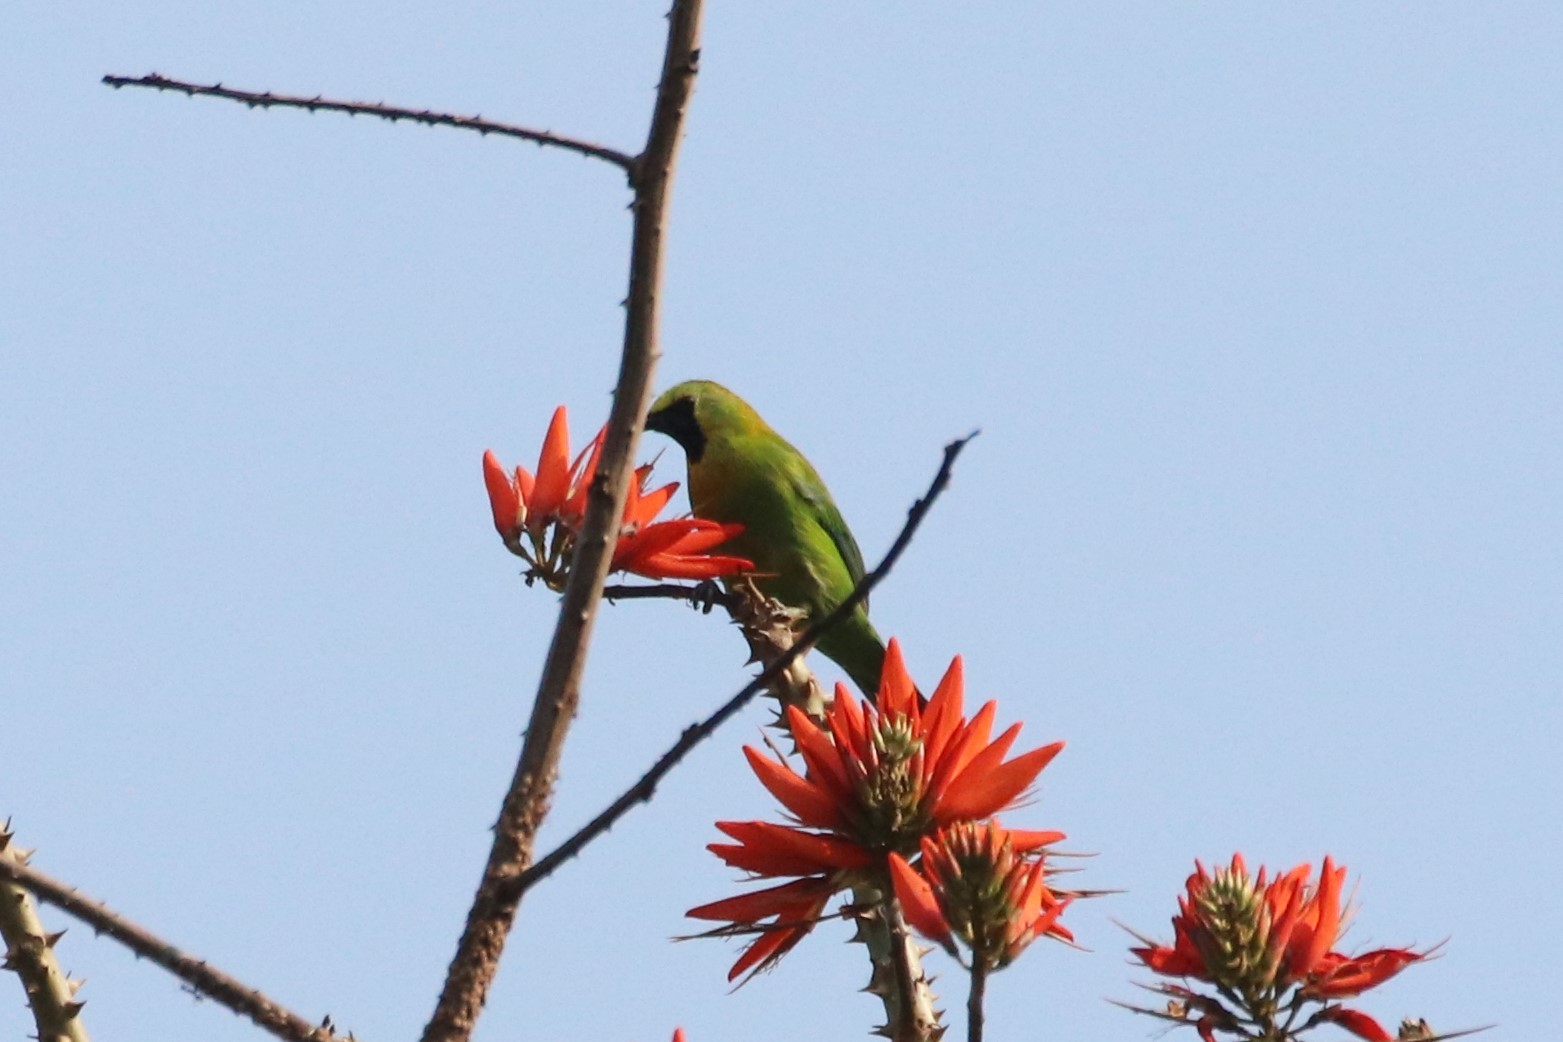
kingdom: Animalia
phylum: Chordata
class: Aves
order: Passeriformes
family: Chloropseidae
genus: Chloropsis
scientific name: Chloropsis moluccensis
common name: Blue-winged leafbird
